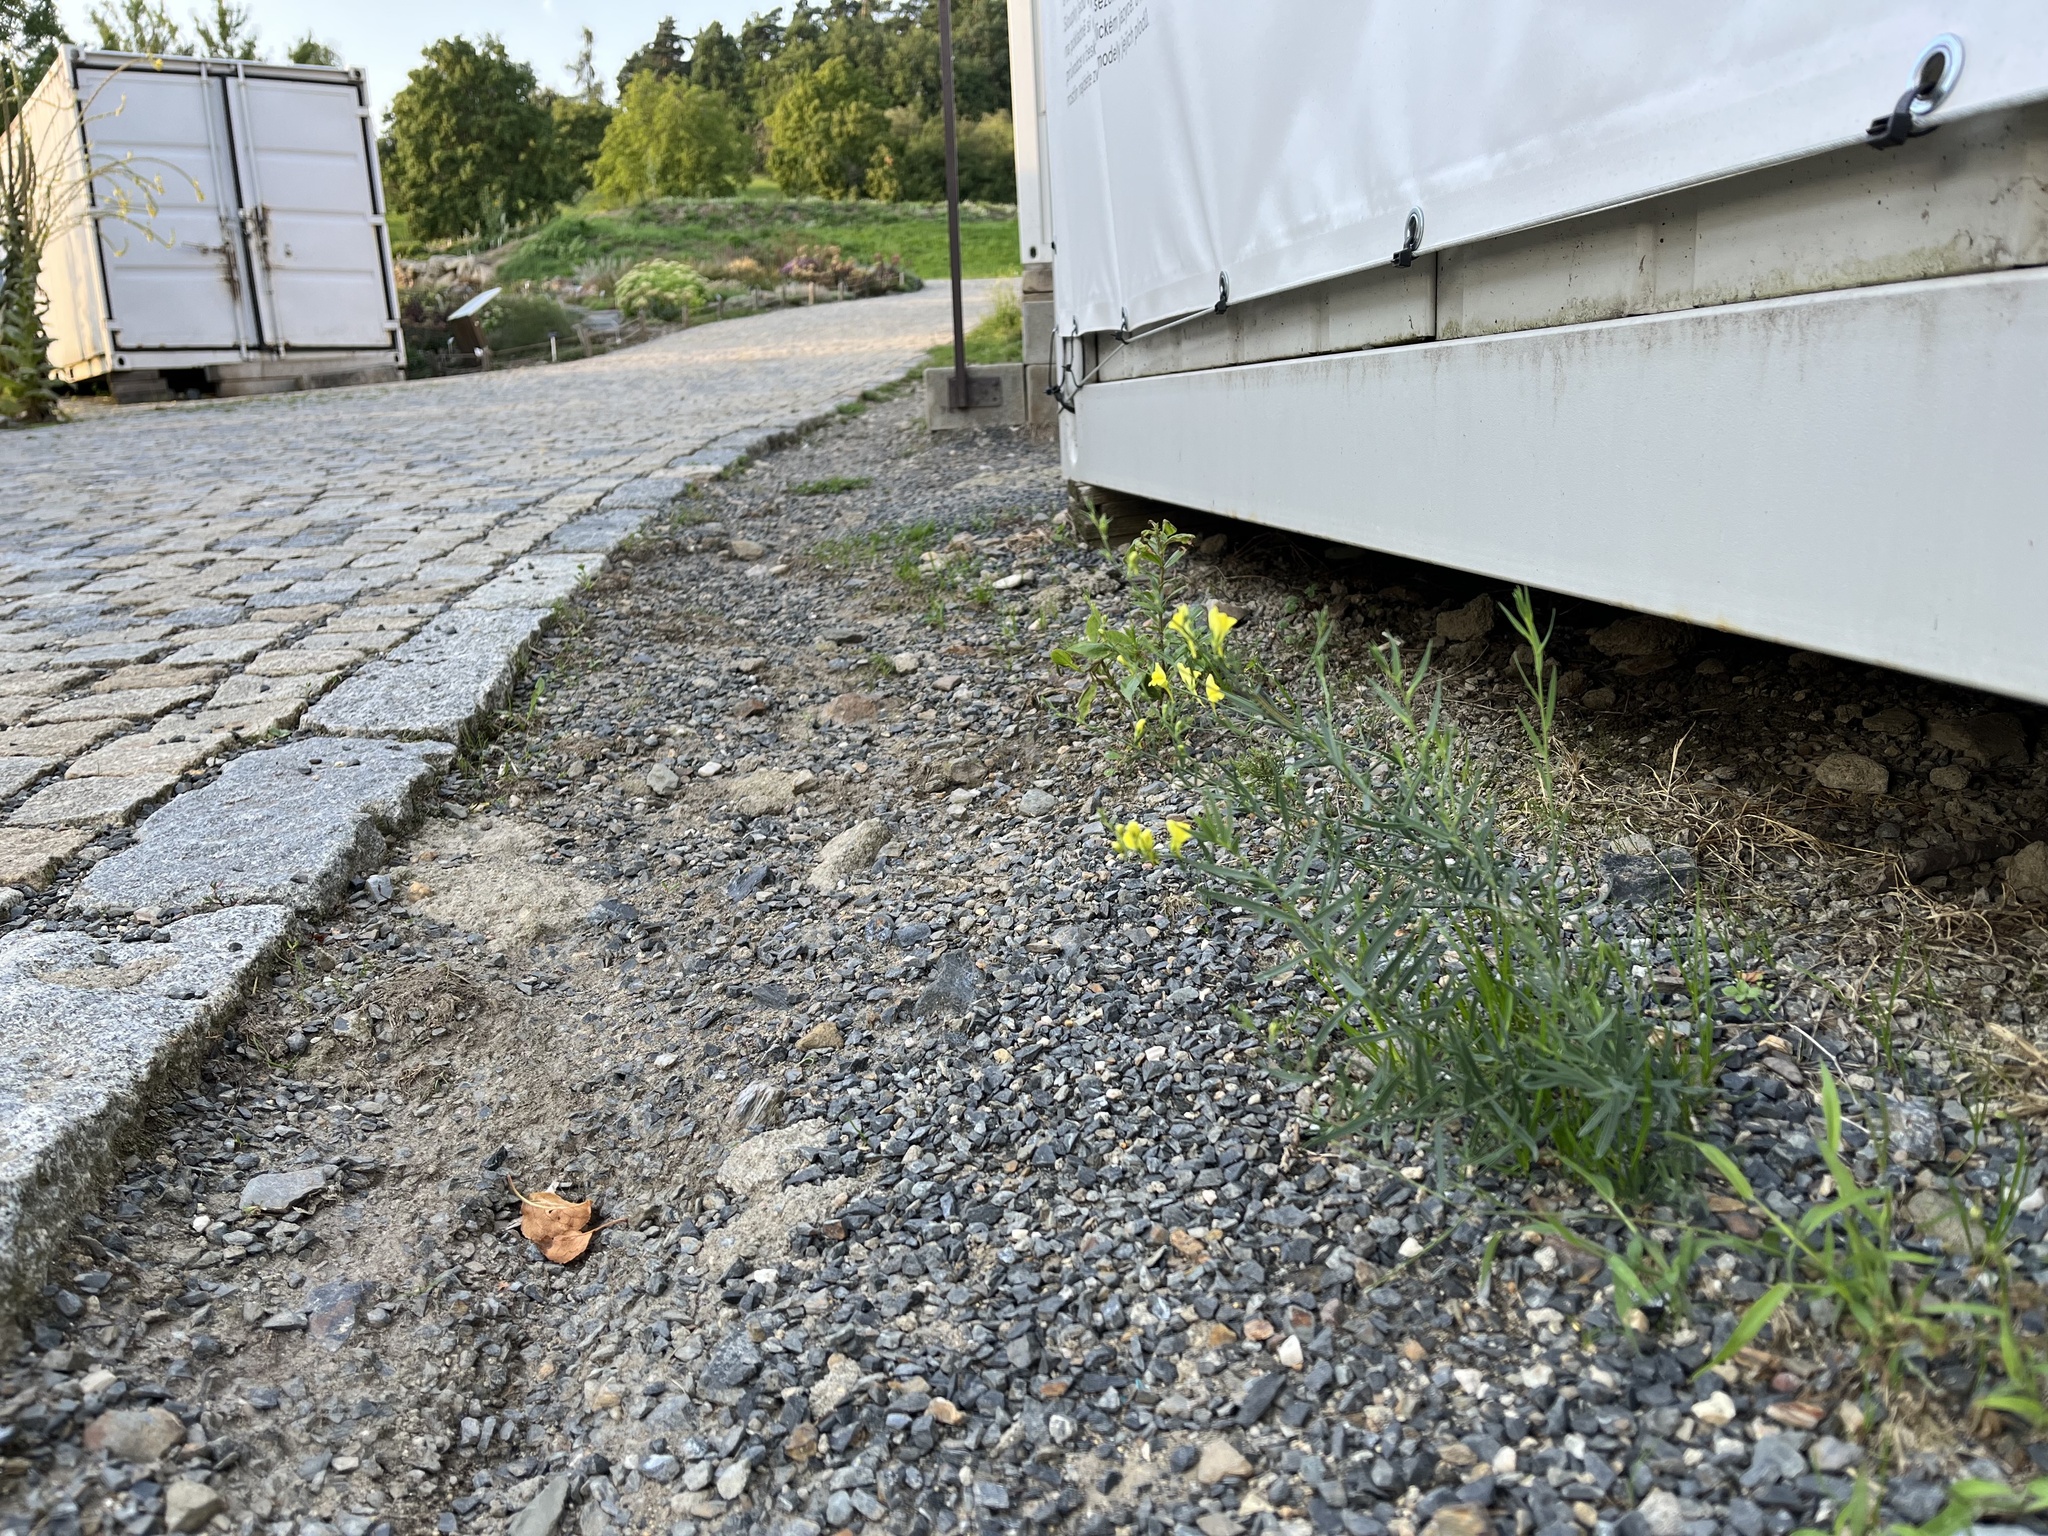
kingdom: Plantae
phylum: Tracheophyta
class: Magnoliopsida
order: Lamiales
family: Plantaginaceae
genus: Linaria
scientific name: Linaria genistifolia
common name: Broomleaf toadflax
